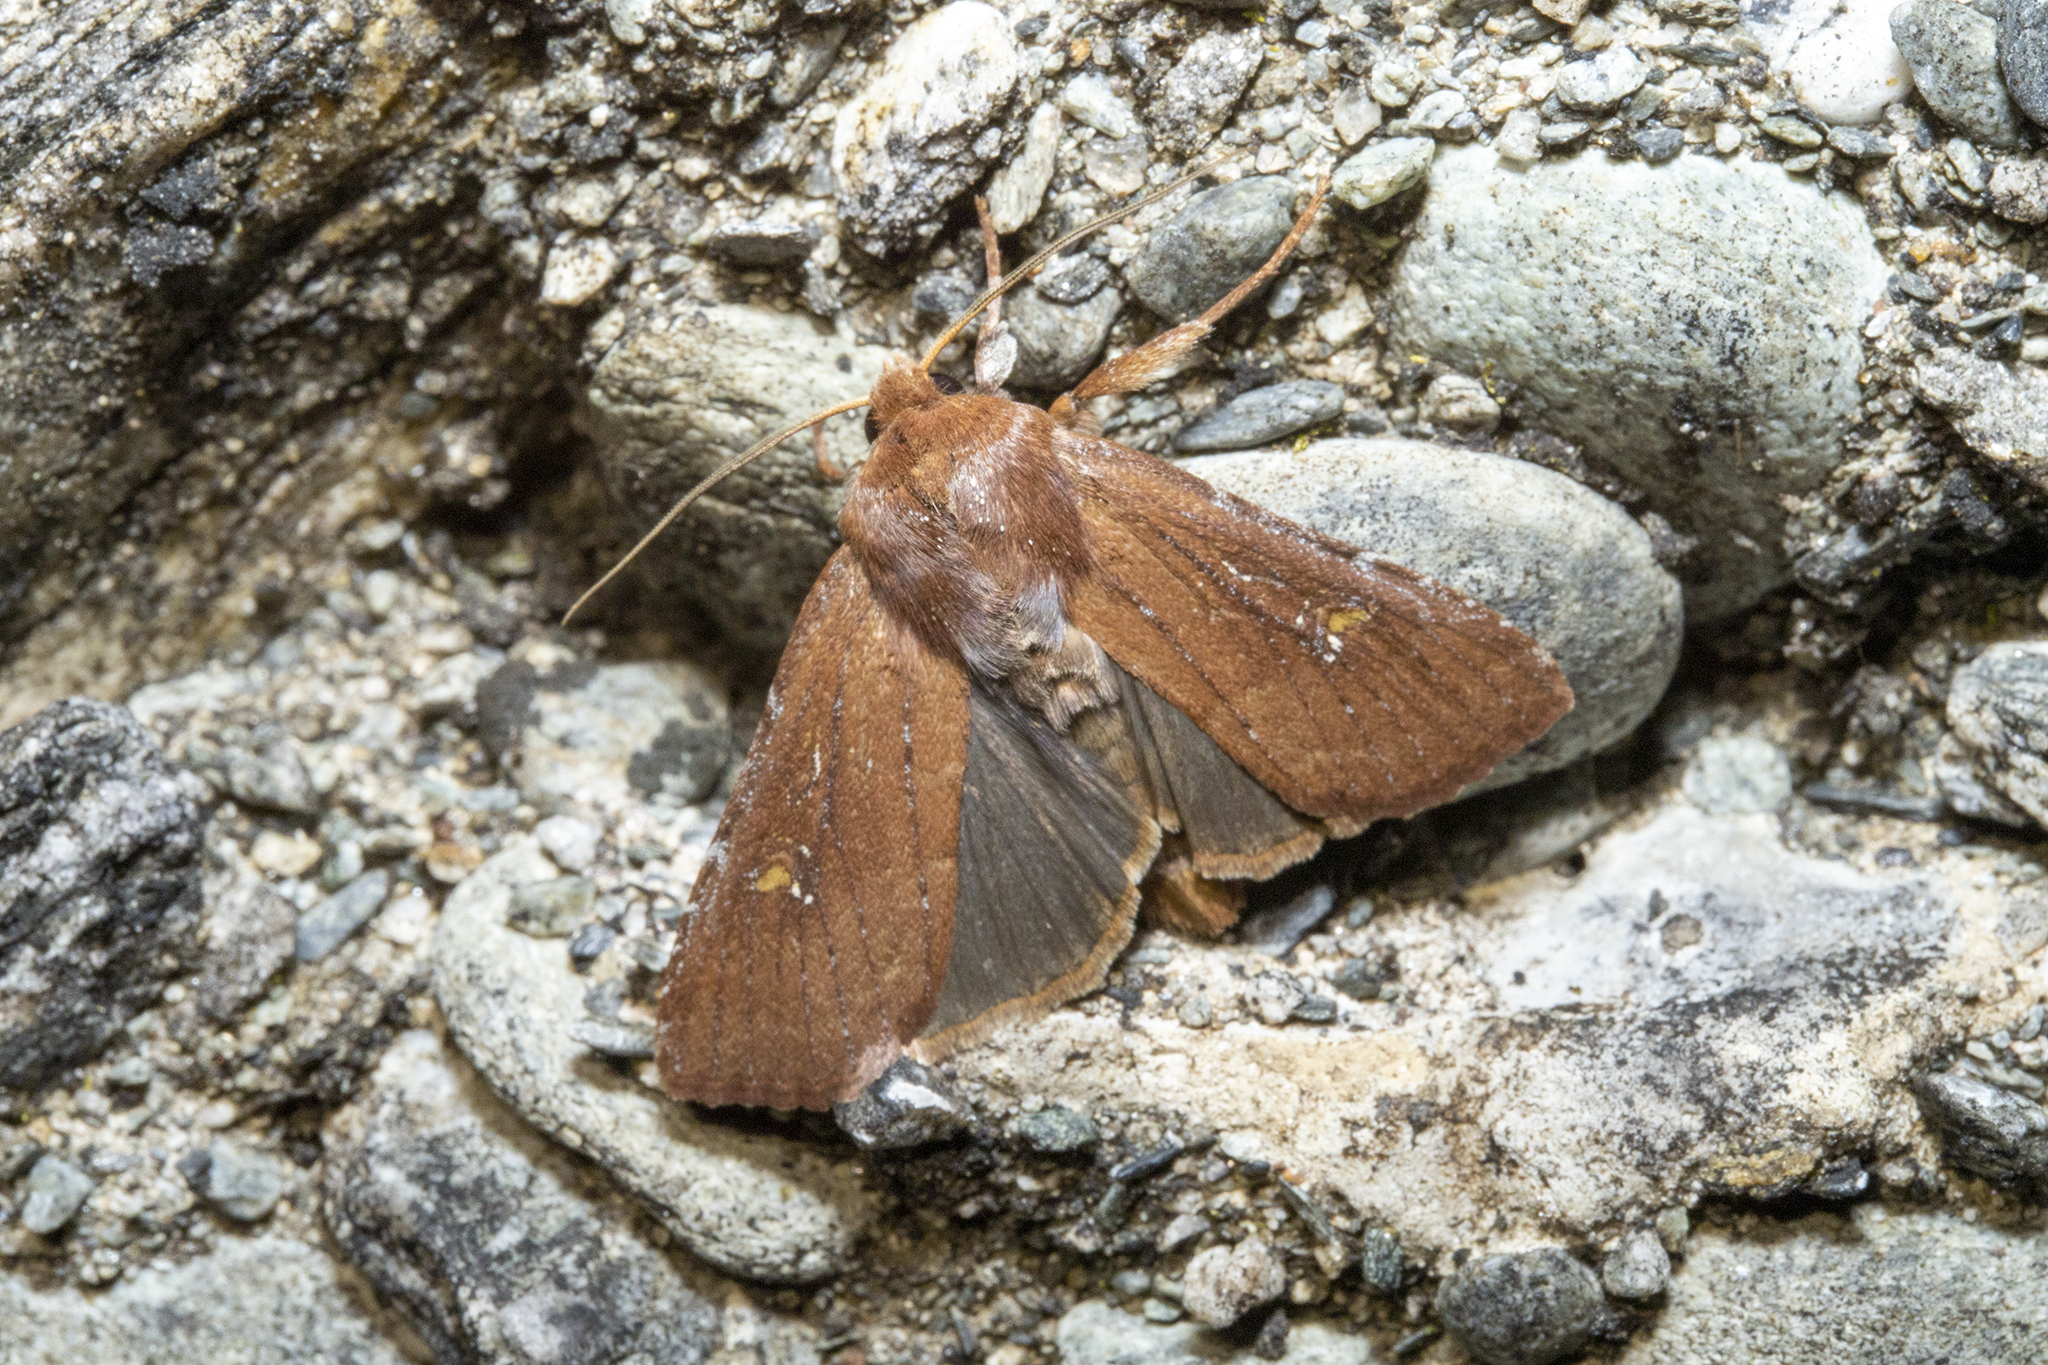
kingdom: Animalia
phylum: Arthropoda
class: Insecta
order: Lepidoptera
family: Noctuidae
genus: Ichneutica
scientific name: Ichneutica
